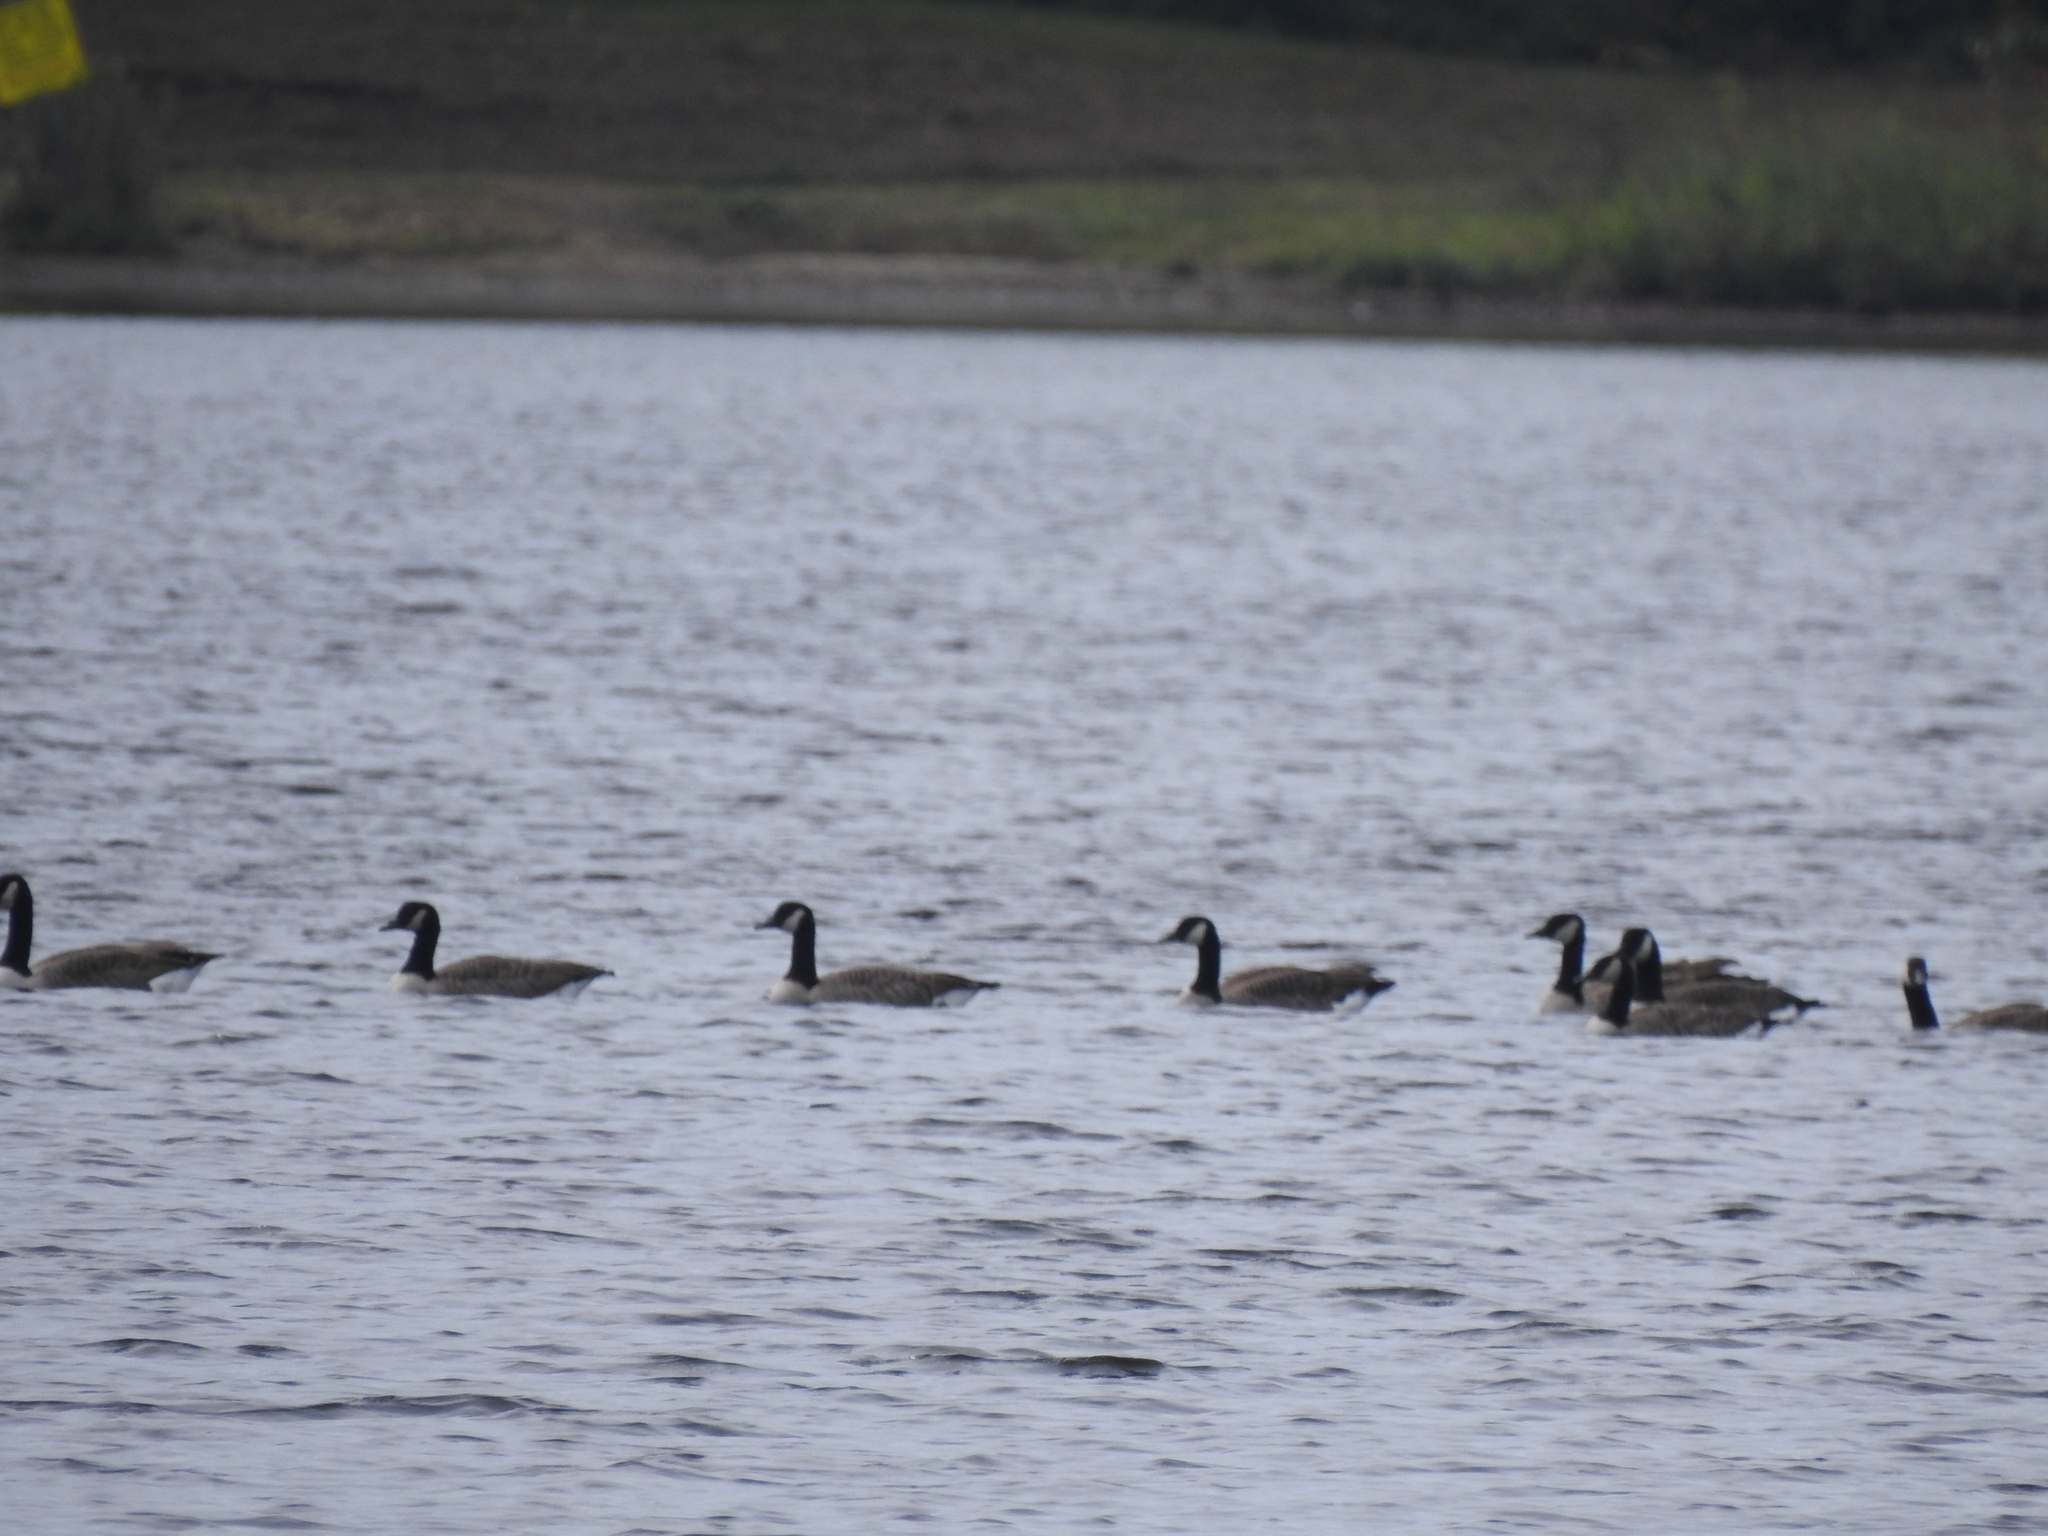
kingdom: Animalia
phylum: Chordata
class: Aves
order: Anseriformes
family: Anatidae
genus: Branta
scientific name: Branta canadensis
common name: Canada goose
